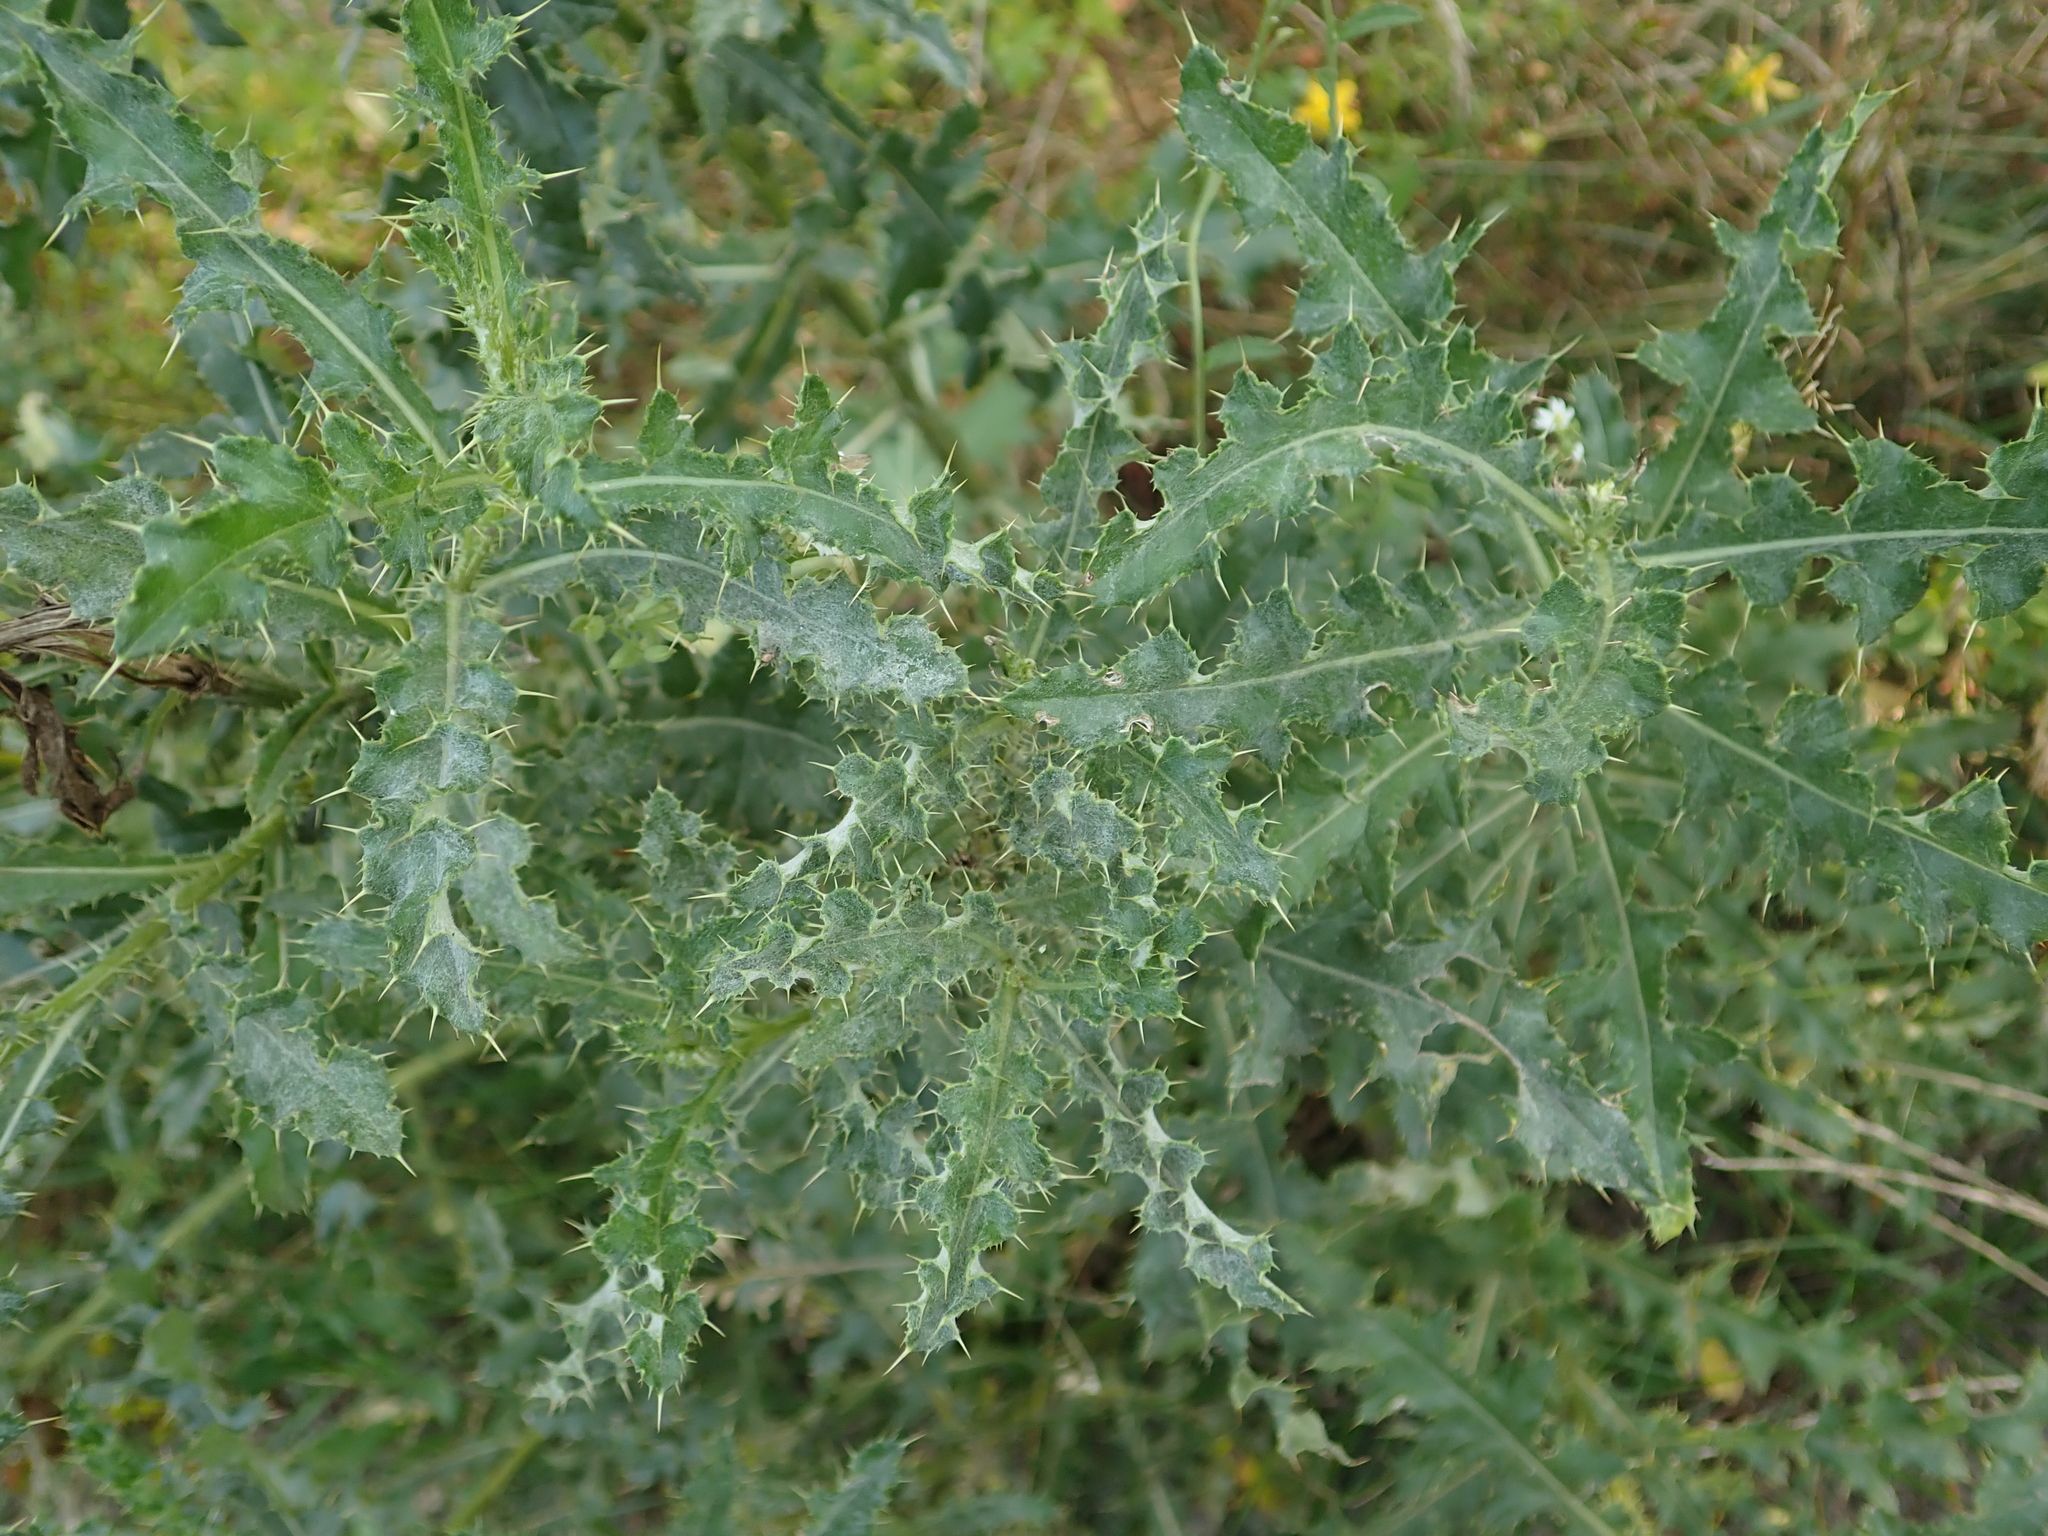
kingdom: Plantae
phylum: Tracheophyta
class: Magnoliopsida
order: Asterales
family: Asteraceae
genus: Cirsium
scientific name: Cirsium arvense
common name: Creeping thistle
